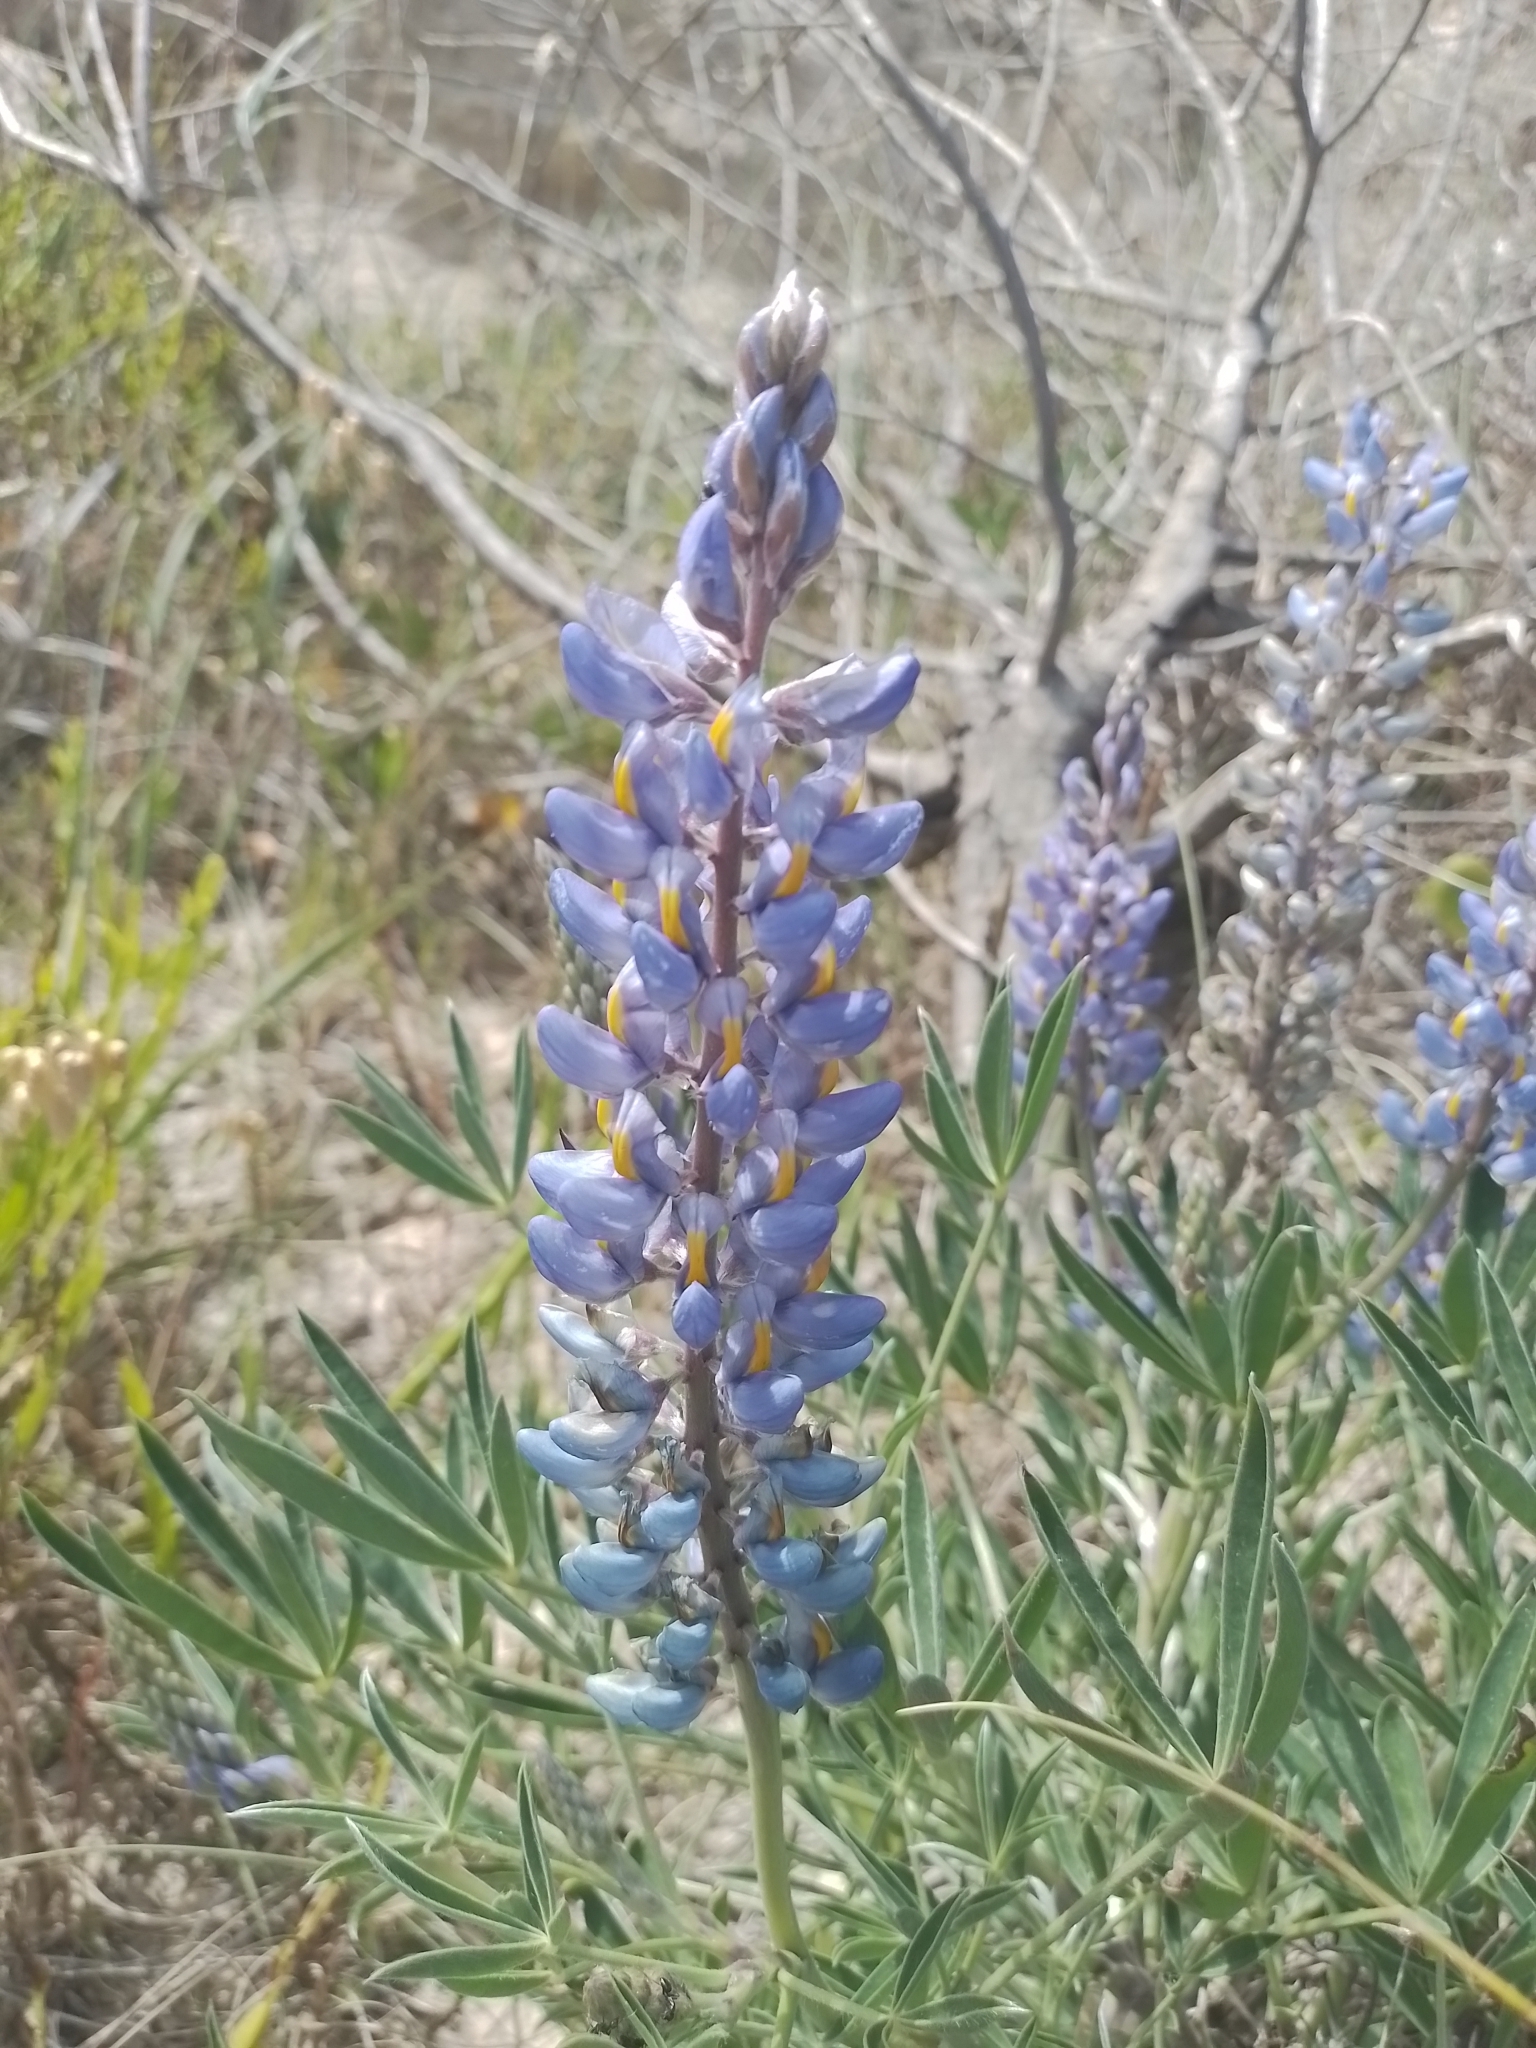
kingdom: Plantae
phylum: Tracheophyta
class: Magnoliopsida
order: Fabales
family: Fabaceae
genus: Lupinus
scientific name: Lupinus multiflorus
